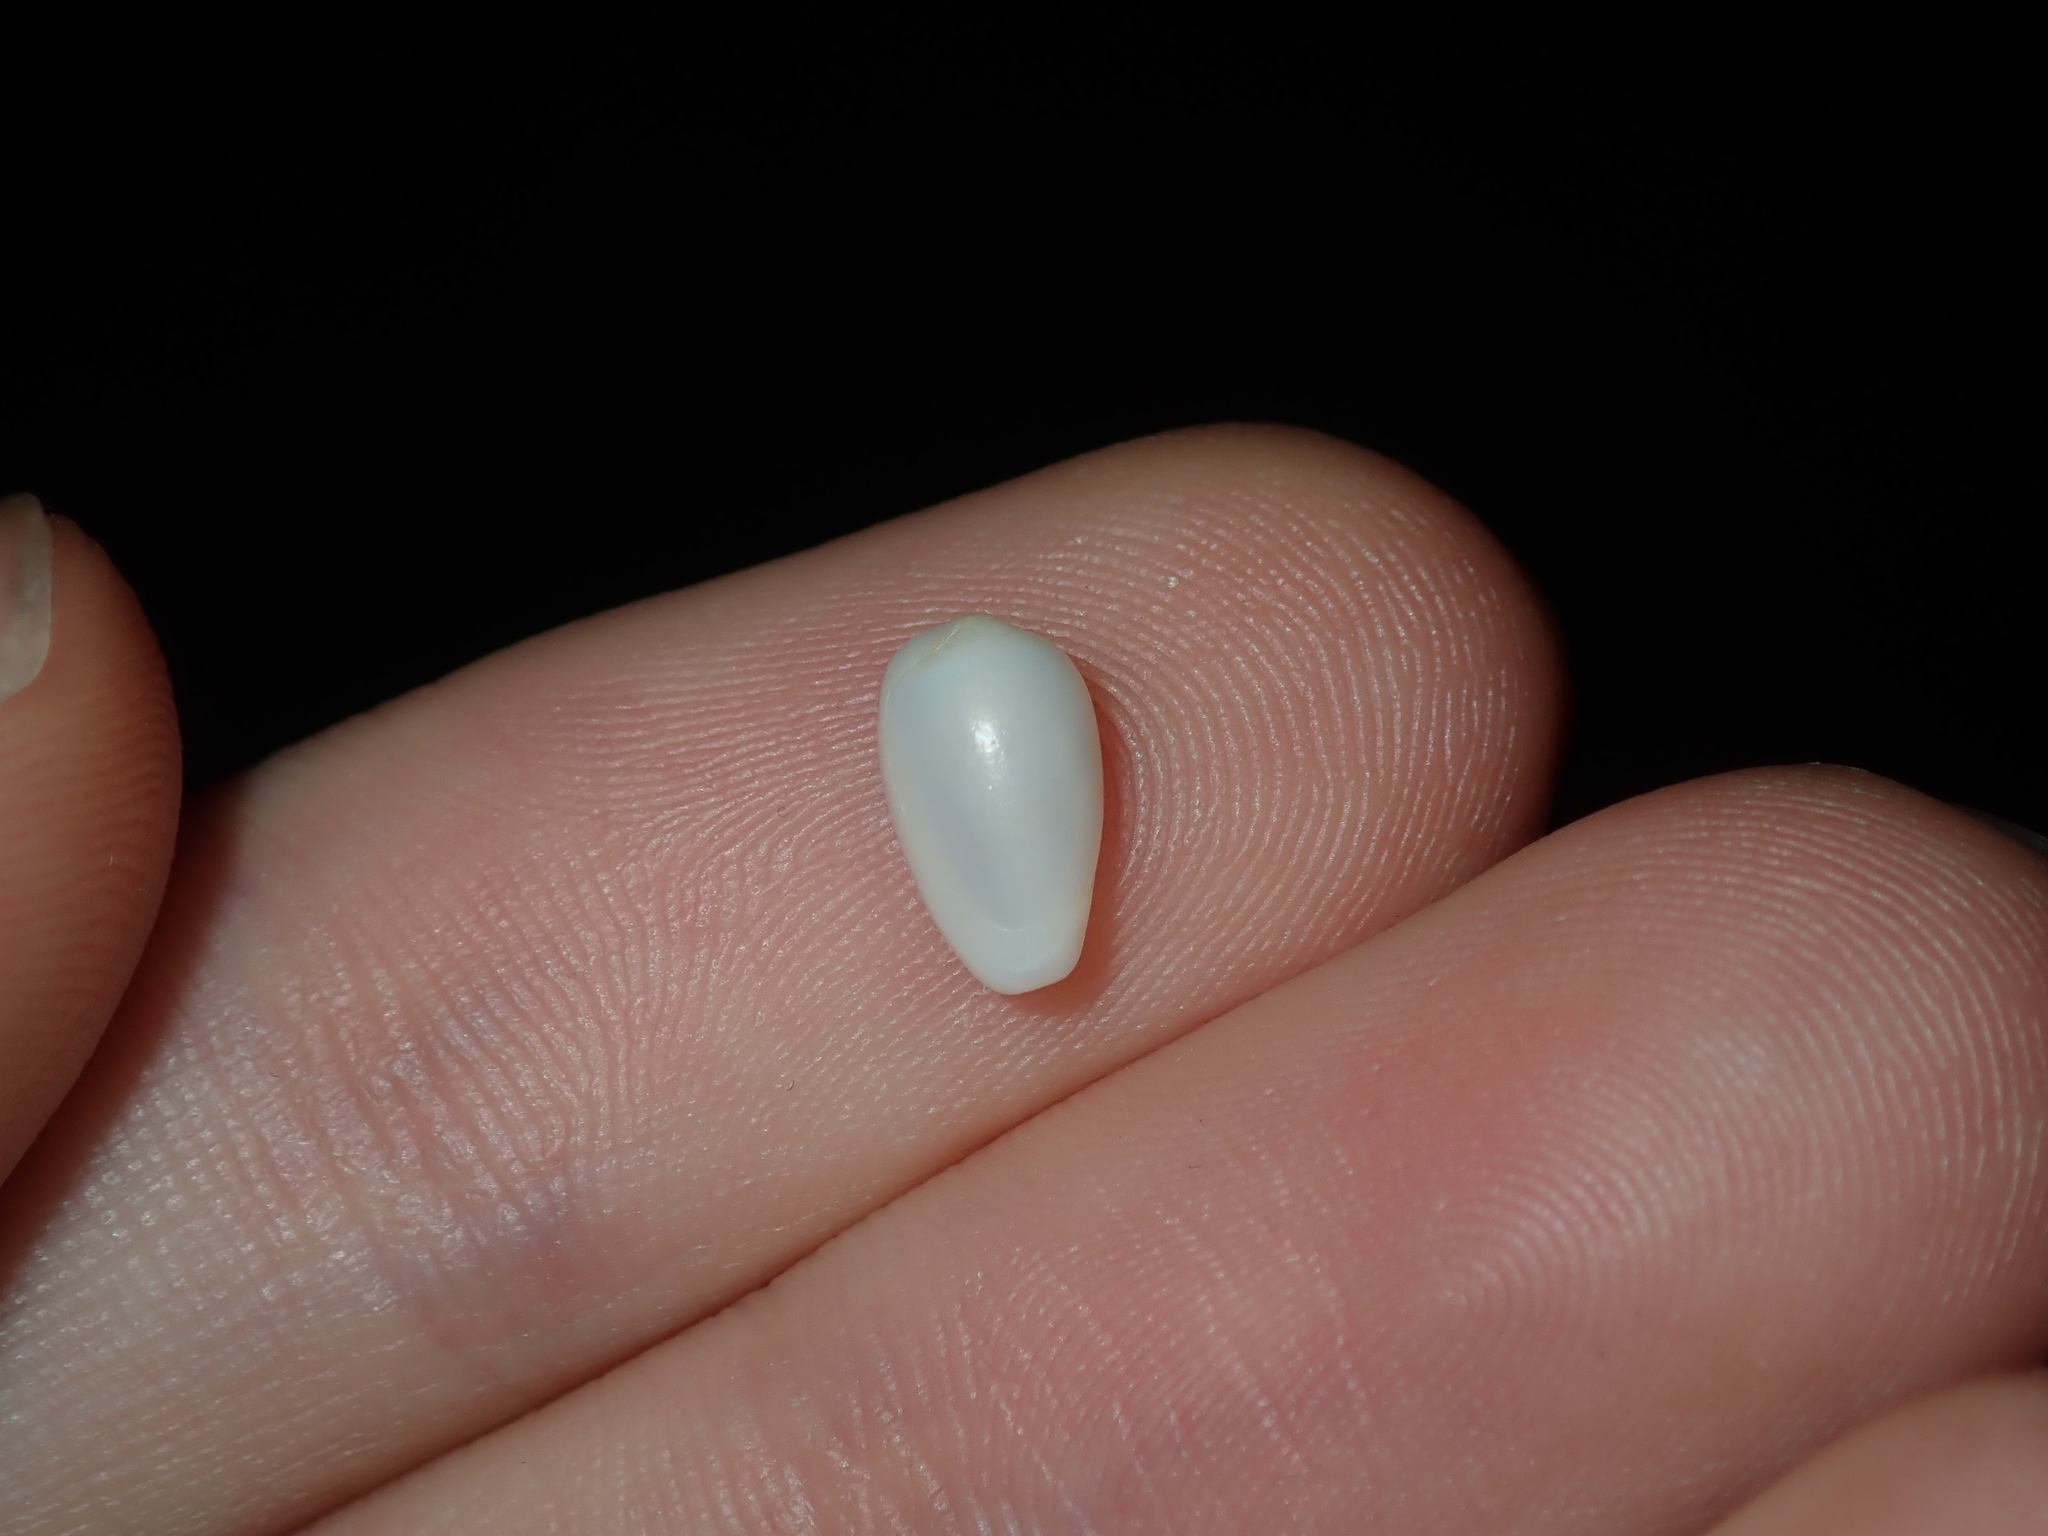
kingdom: Animalia
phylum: Mollusca
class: Gastropoda
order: Neogastropoda
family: Marginellidae
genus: Mesoginella
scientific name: Mesoginella olivella
